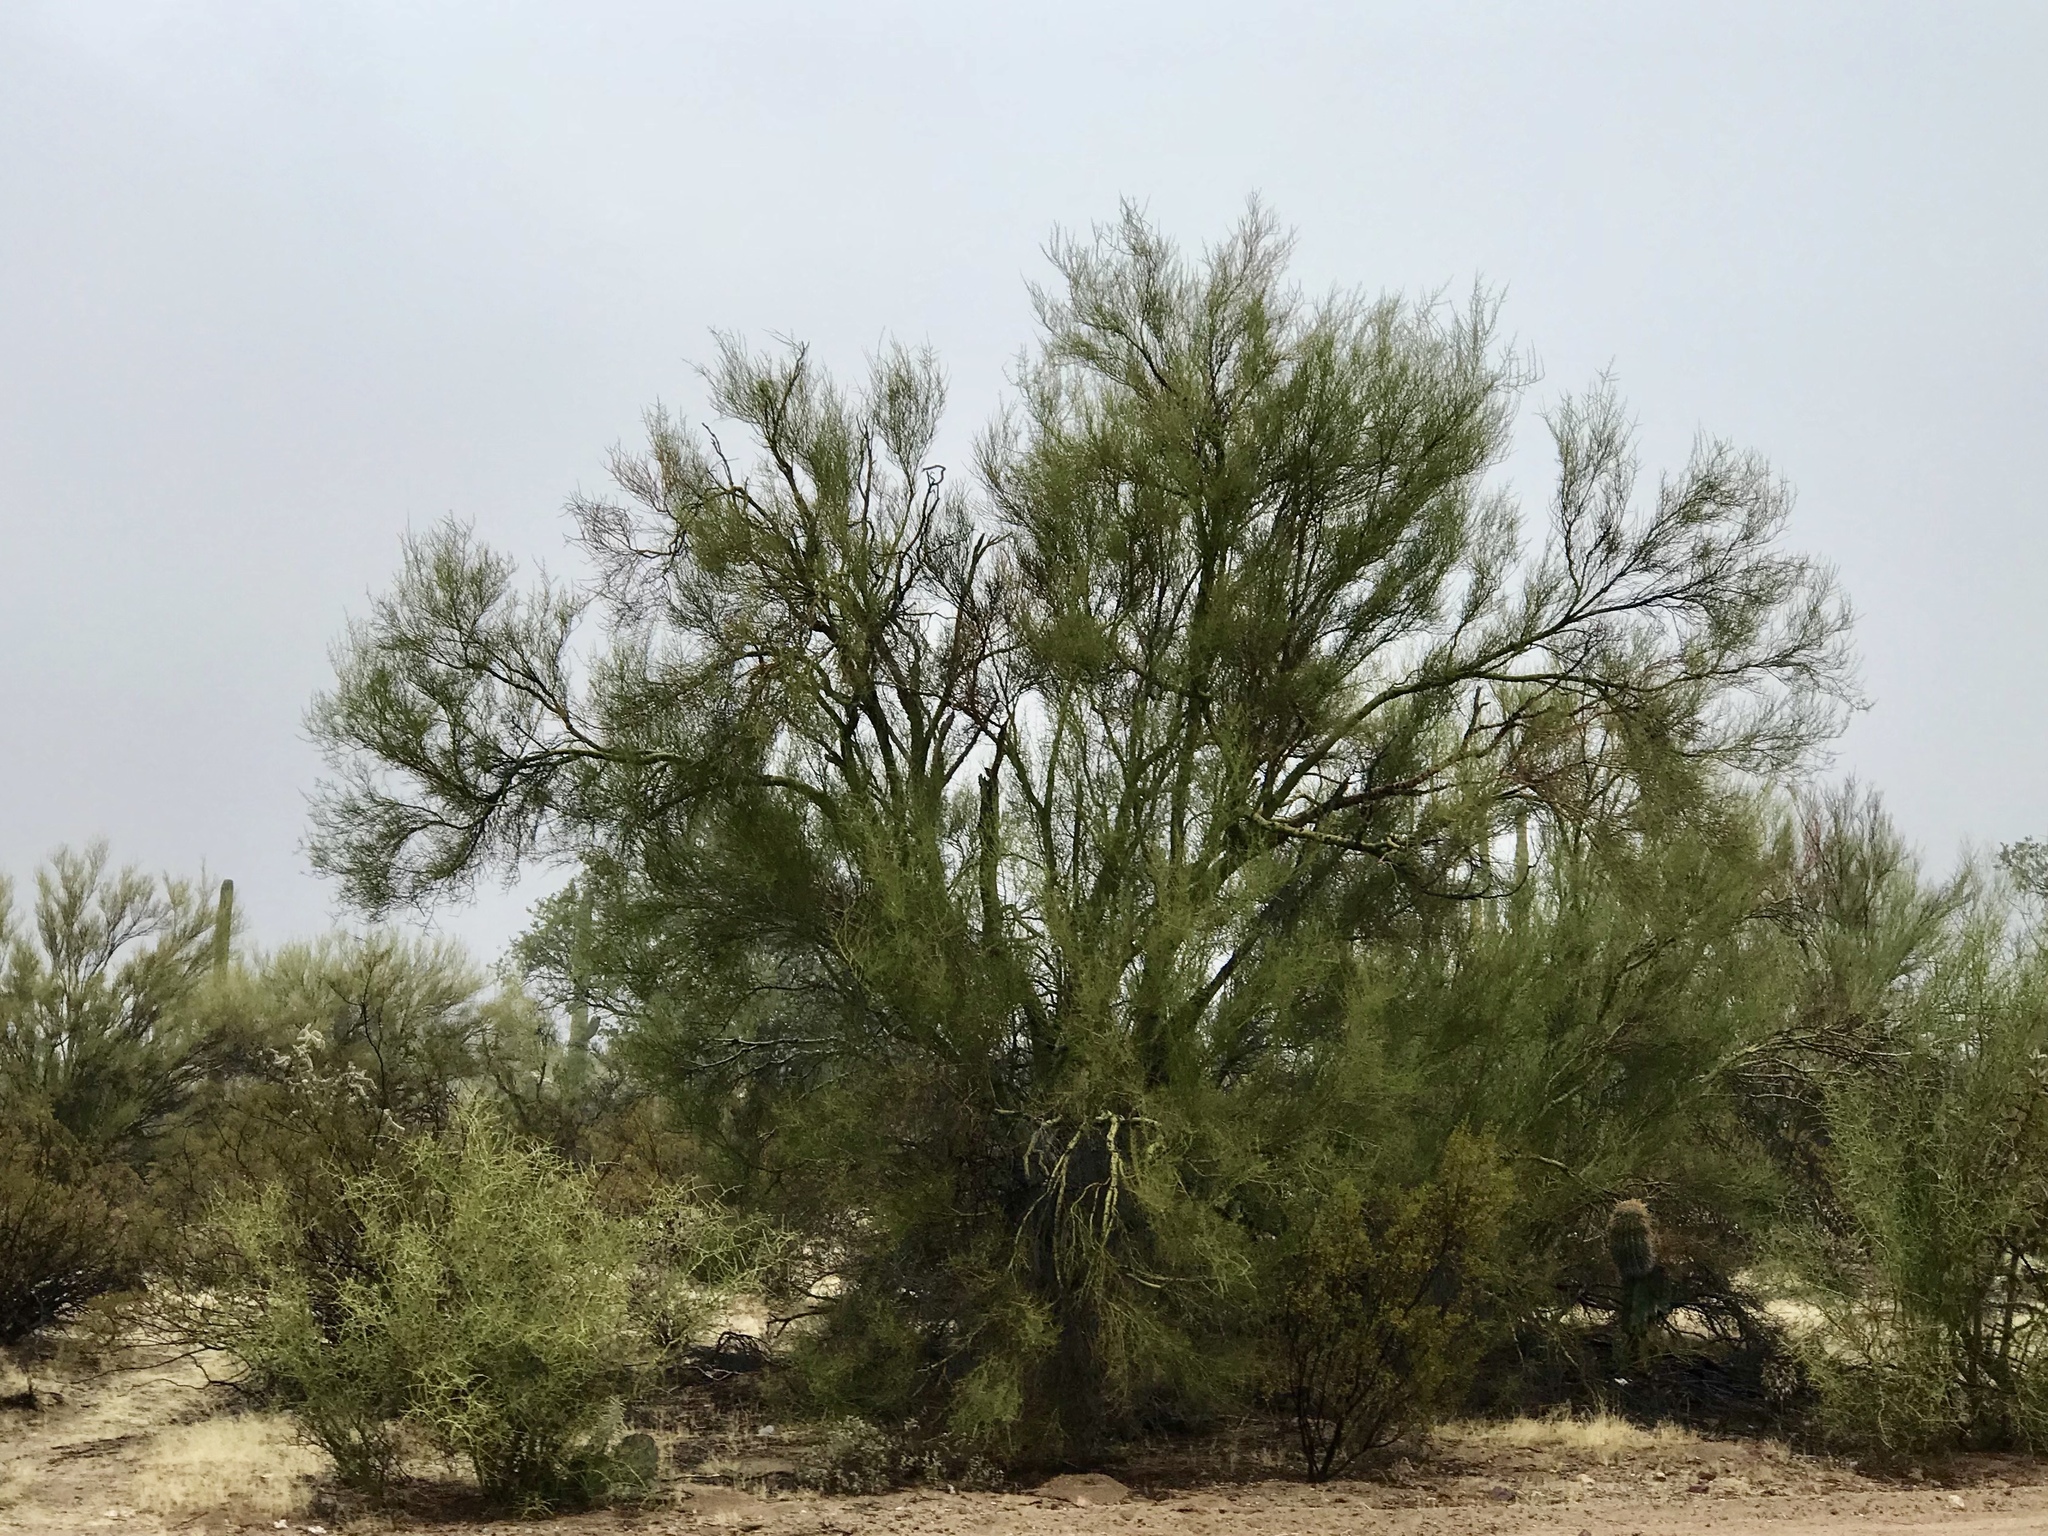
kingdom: Plantae
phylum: Tracheophyta
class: Magnoliopsida
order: Fabales
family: Fabaceae
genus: Parkinsonia
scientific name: Parkinsonia microphylla
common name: Yellow paloverde
